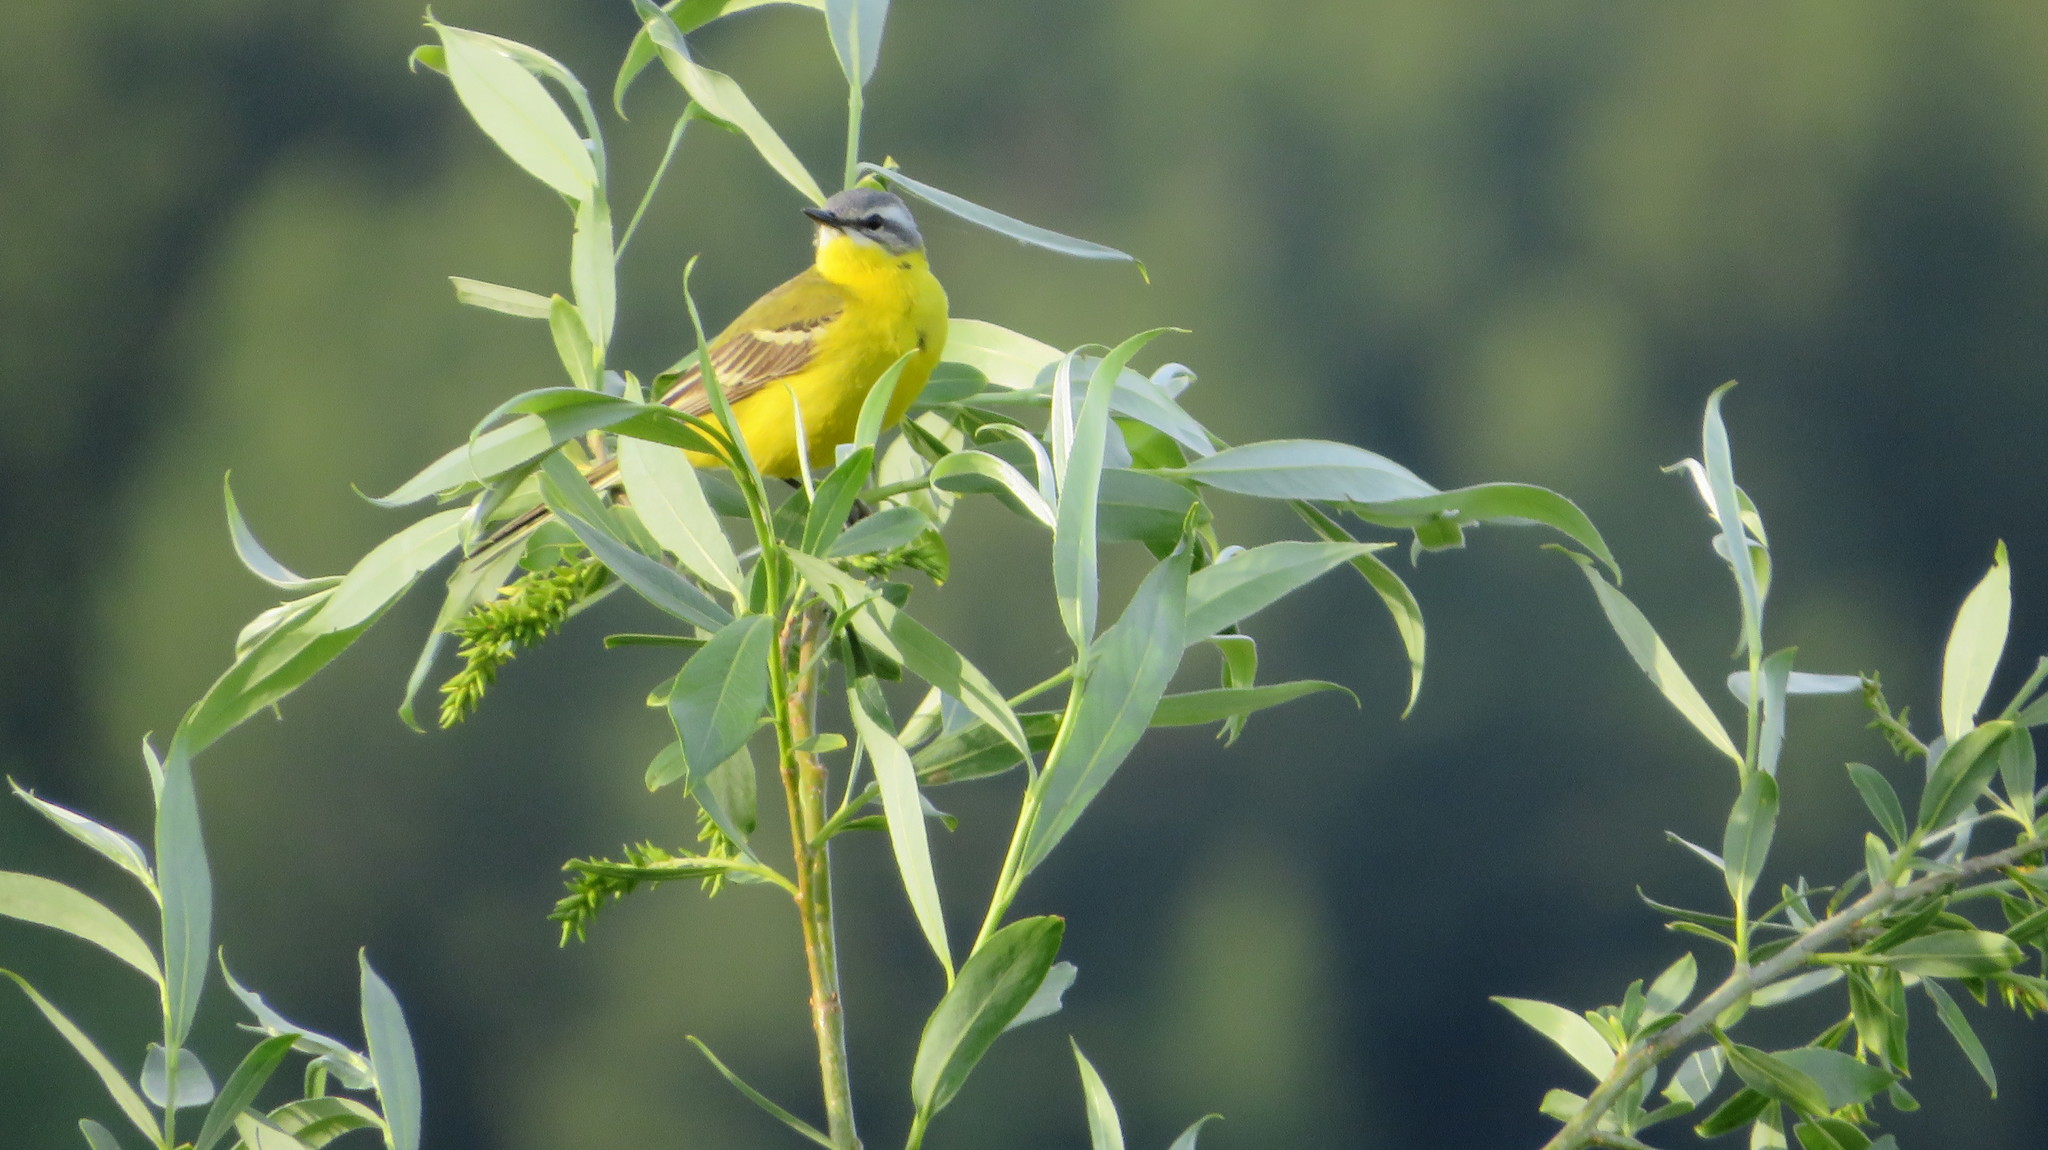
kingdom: Animalia
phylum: Chordata
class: Aves
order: Passeriformes
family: Motacillidae
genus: Motacilla
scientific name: Motacilla flava
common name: Western yellow wagtail
